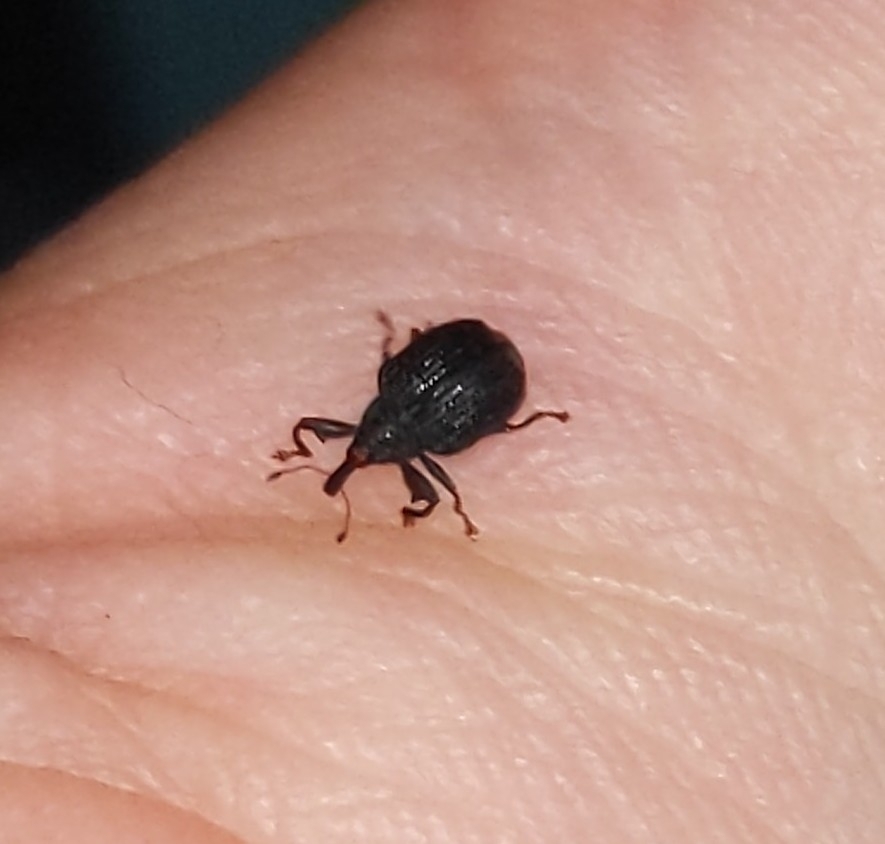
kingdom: Animalia
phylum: Arthropoda
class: Insecta
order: Coleoptera
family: Curculionidae
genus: Odontopus
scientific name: Odontopus calceatus
